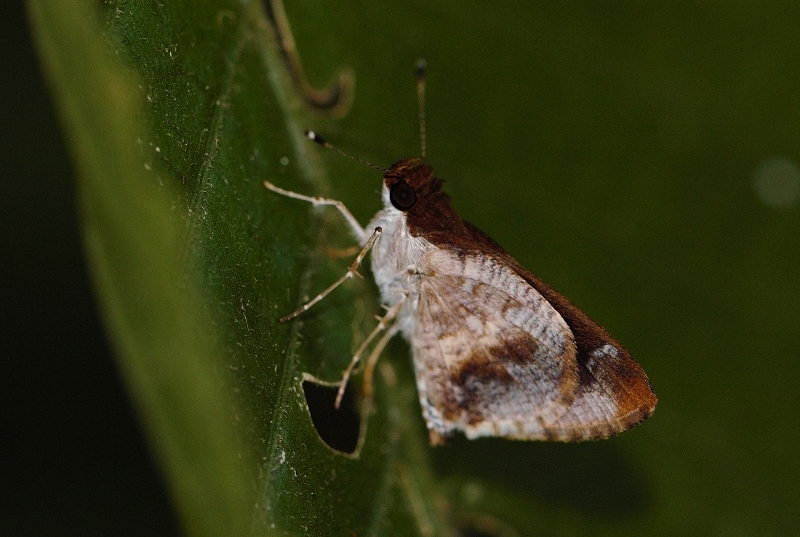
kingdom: Animalia
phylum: Arthropoda
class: Insecta
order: Lepidoptera
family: Hesperiidae
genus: Acleros
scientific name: Acleros mackenii
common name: Shade dart
